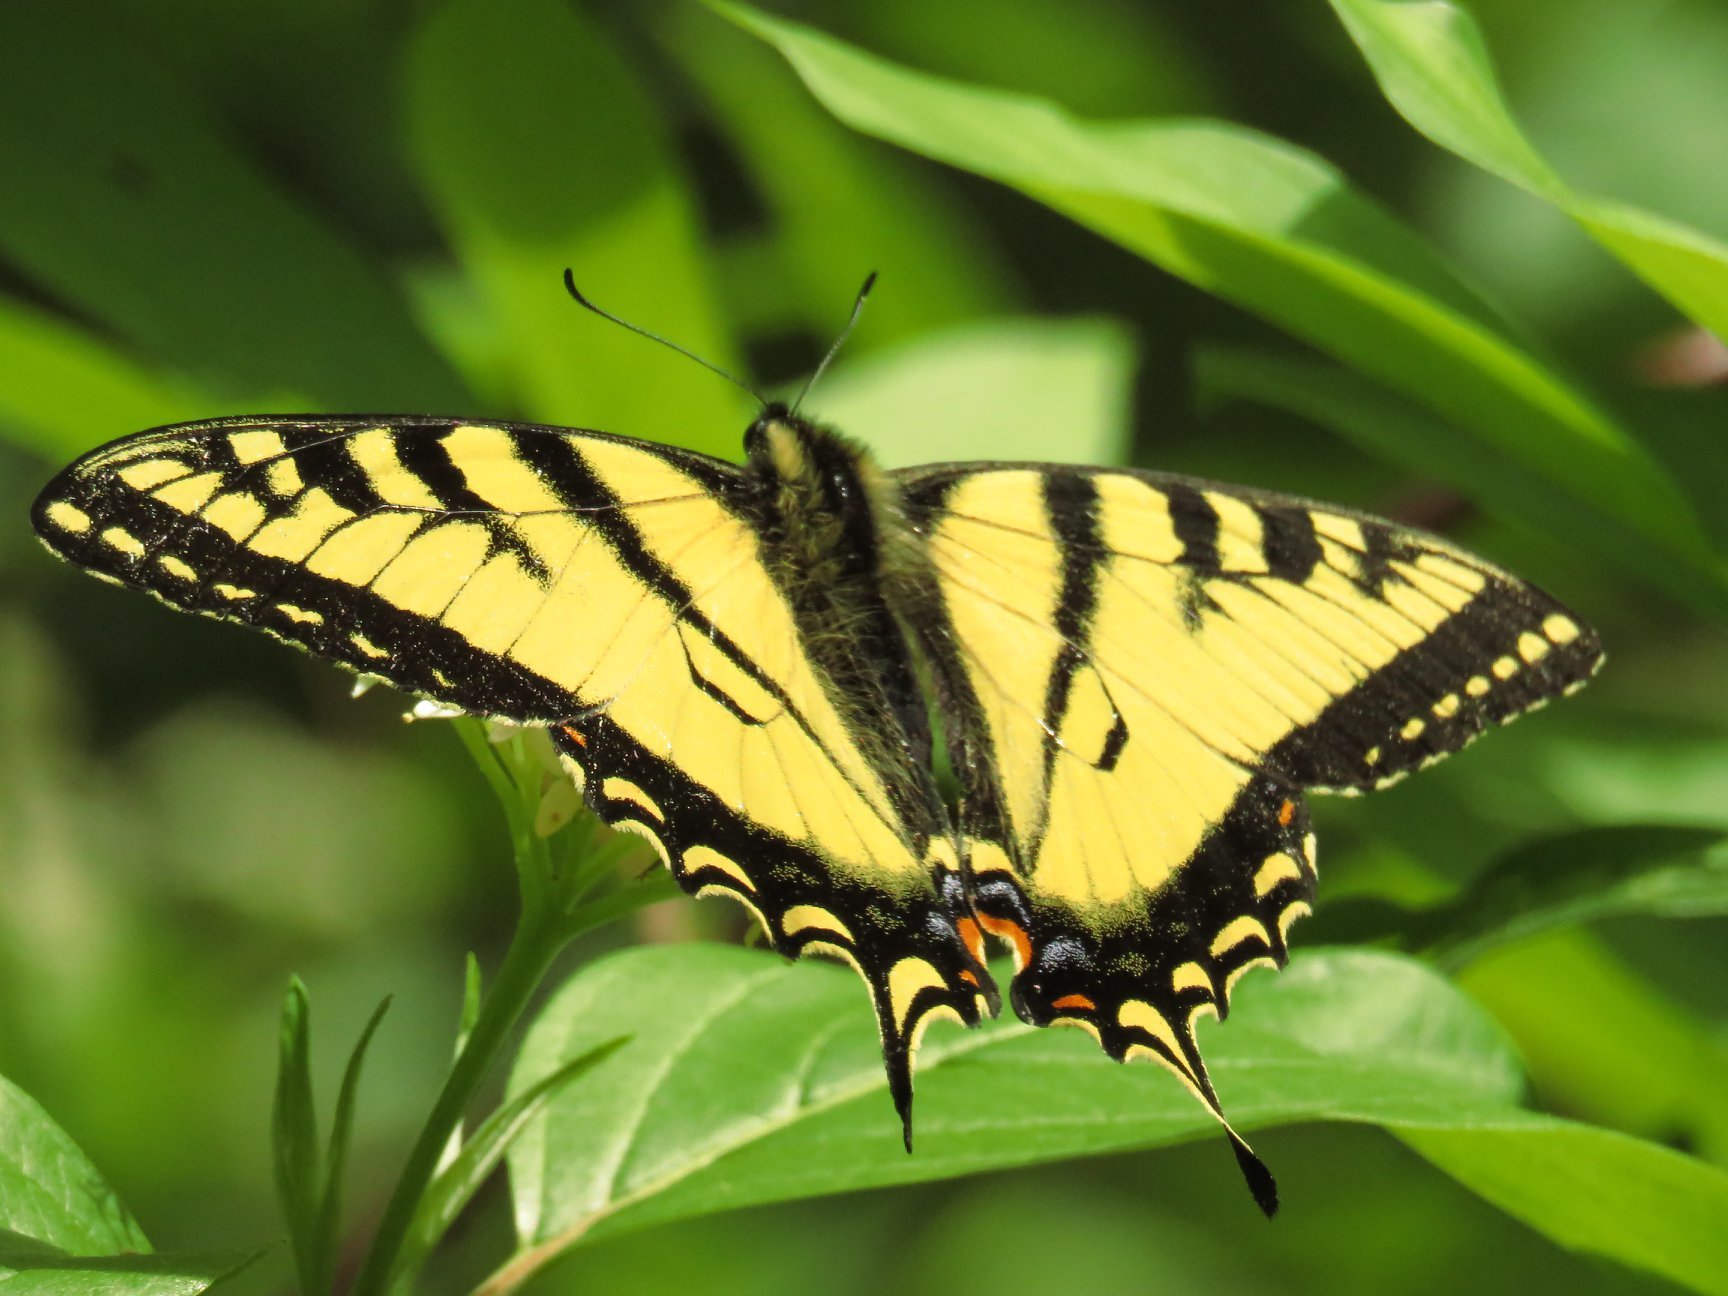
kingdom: Animalia
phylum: Arthropoda
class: Insecta
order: Lepidoptera
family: Papilionidae
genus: Papilio
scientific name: Papilio canadensis
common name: Canadian tiger swallowtail
